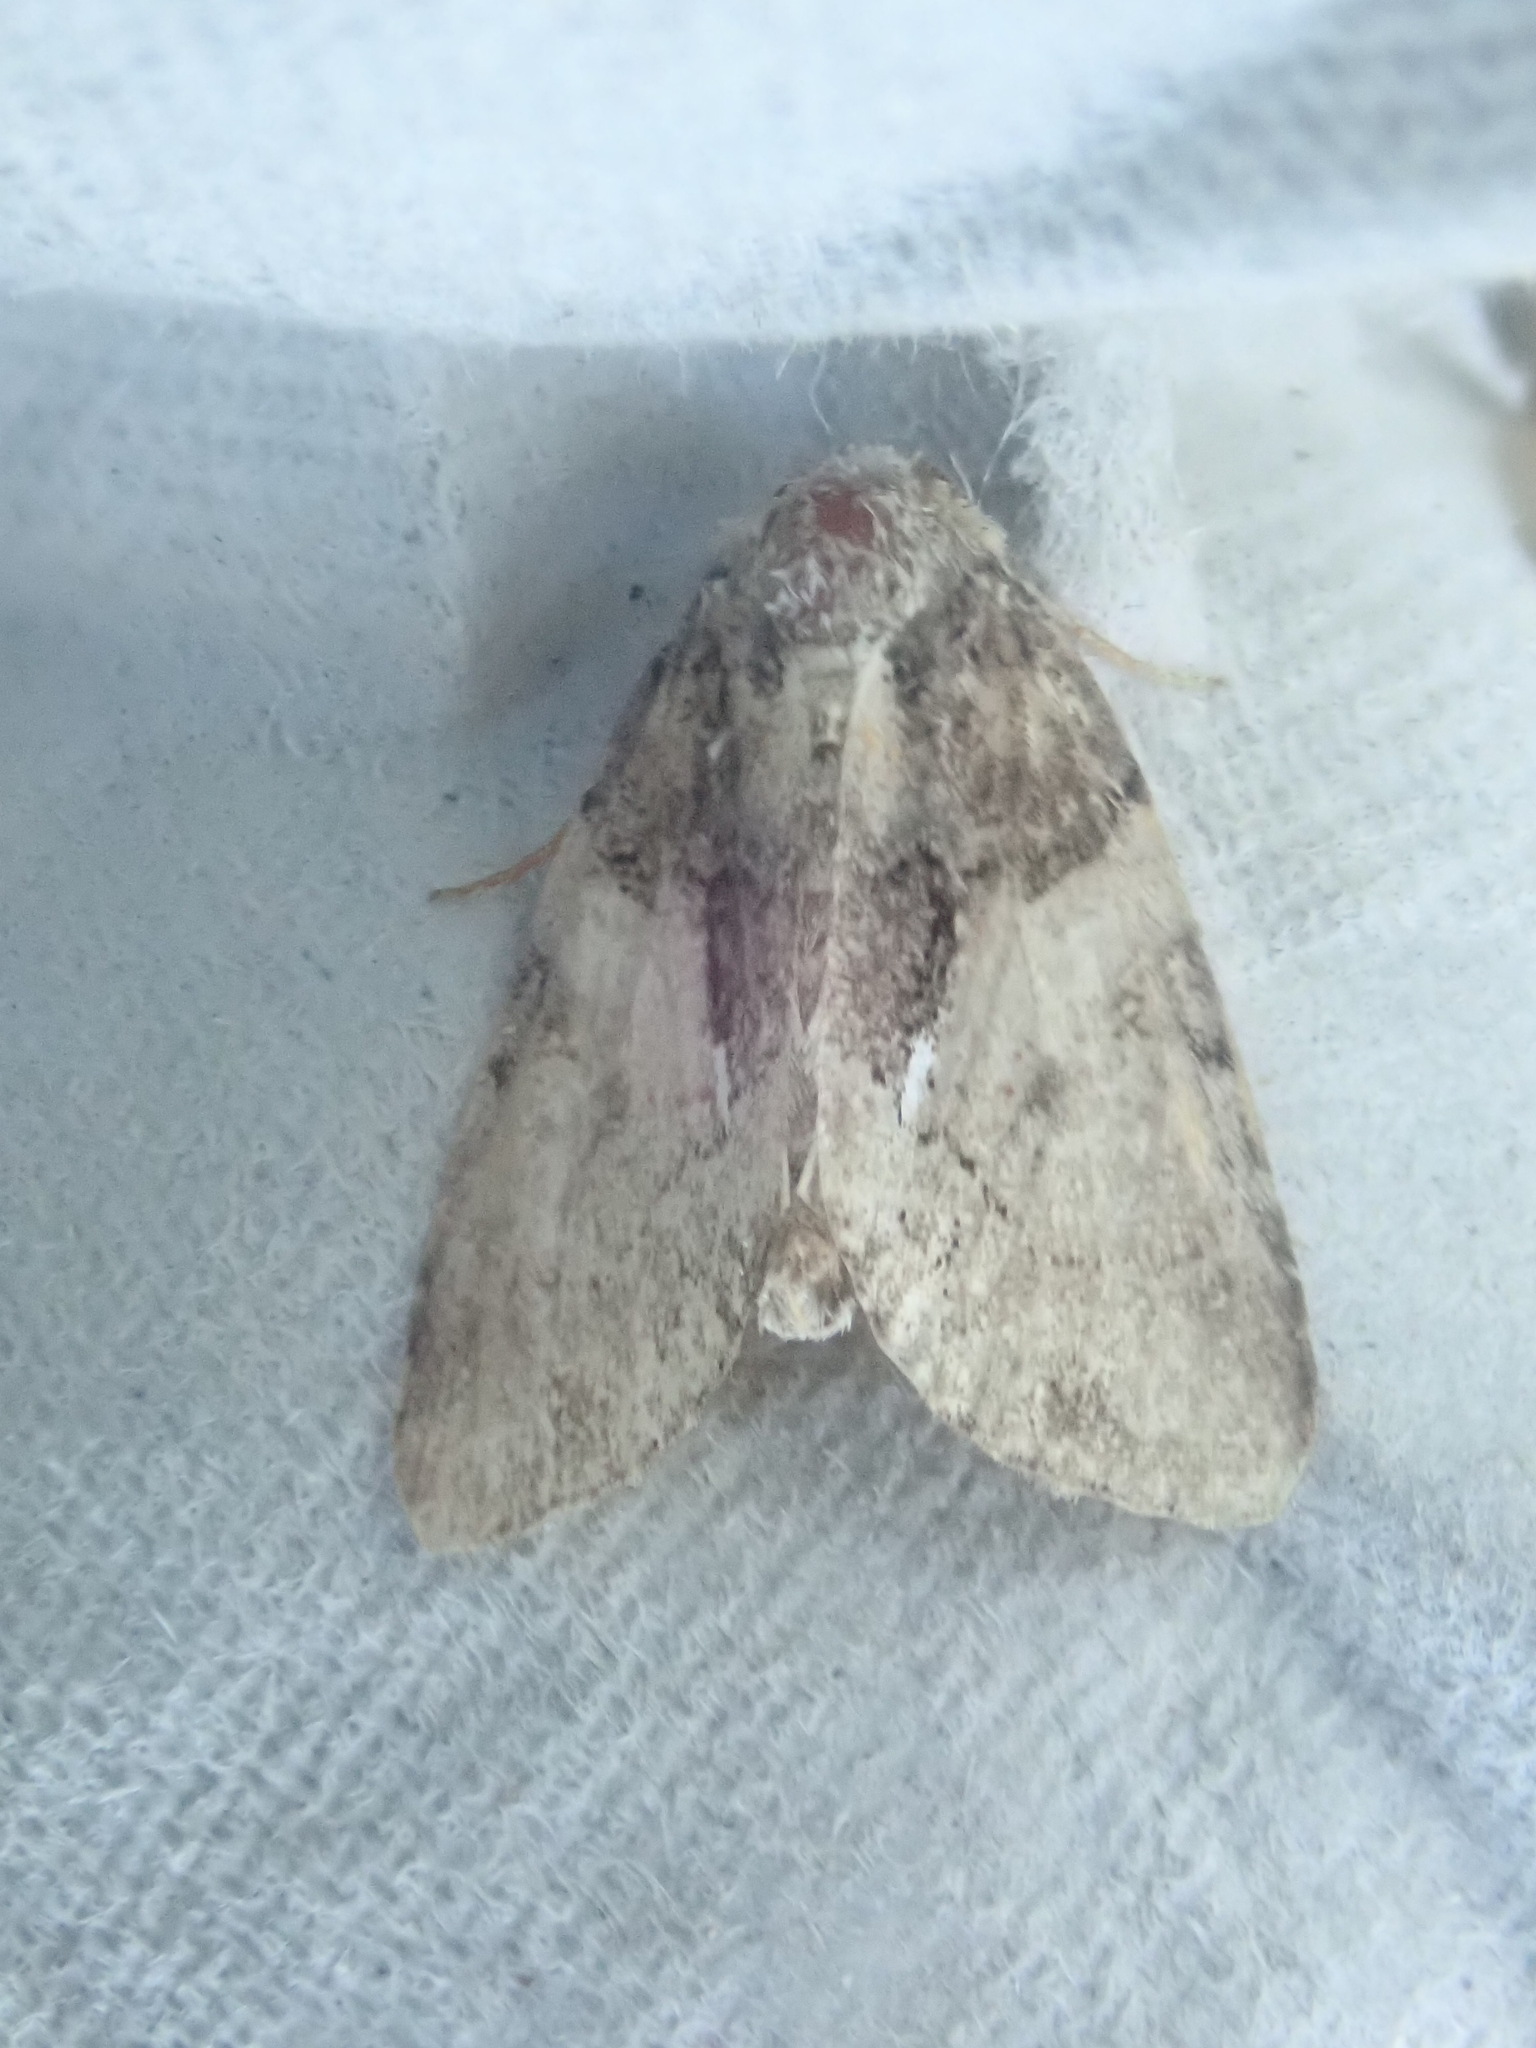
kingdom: Animalia
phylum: Arthropoda
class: Insecta
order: Lepidoptera
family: Noctuidae
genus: Chytonix
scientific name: Chytonix palliatricula
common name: Cloaked marvel
